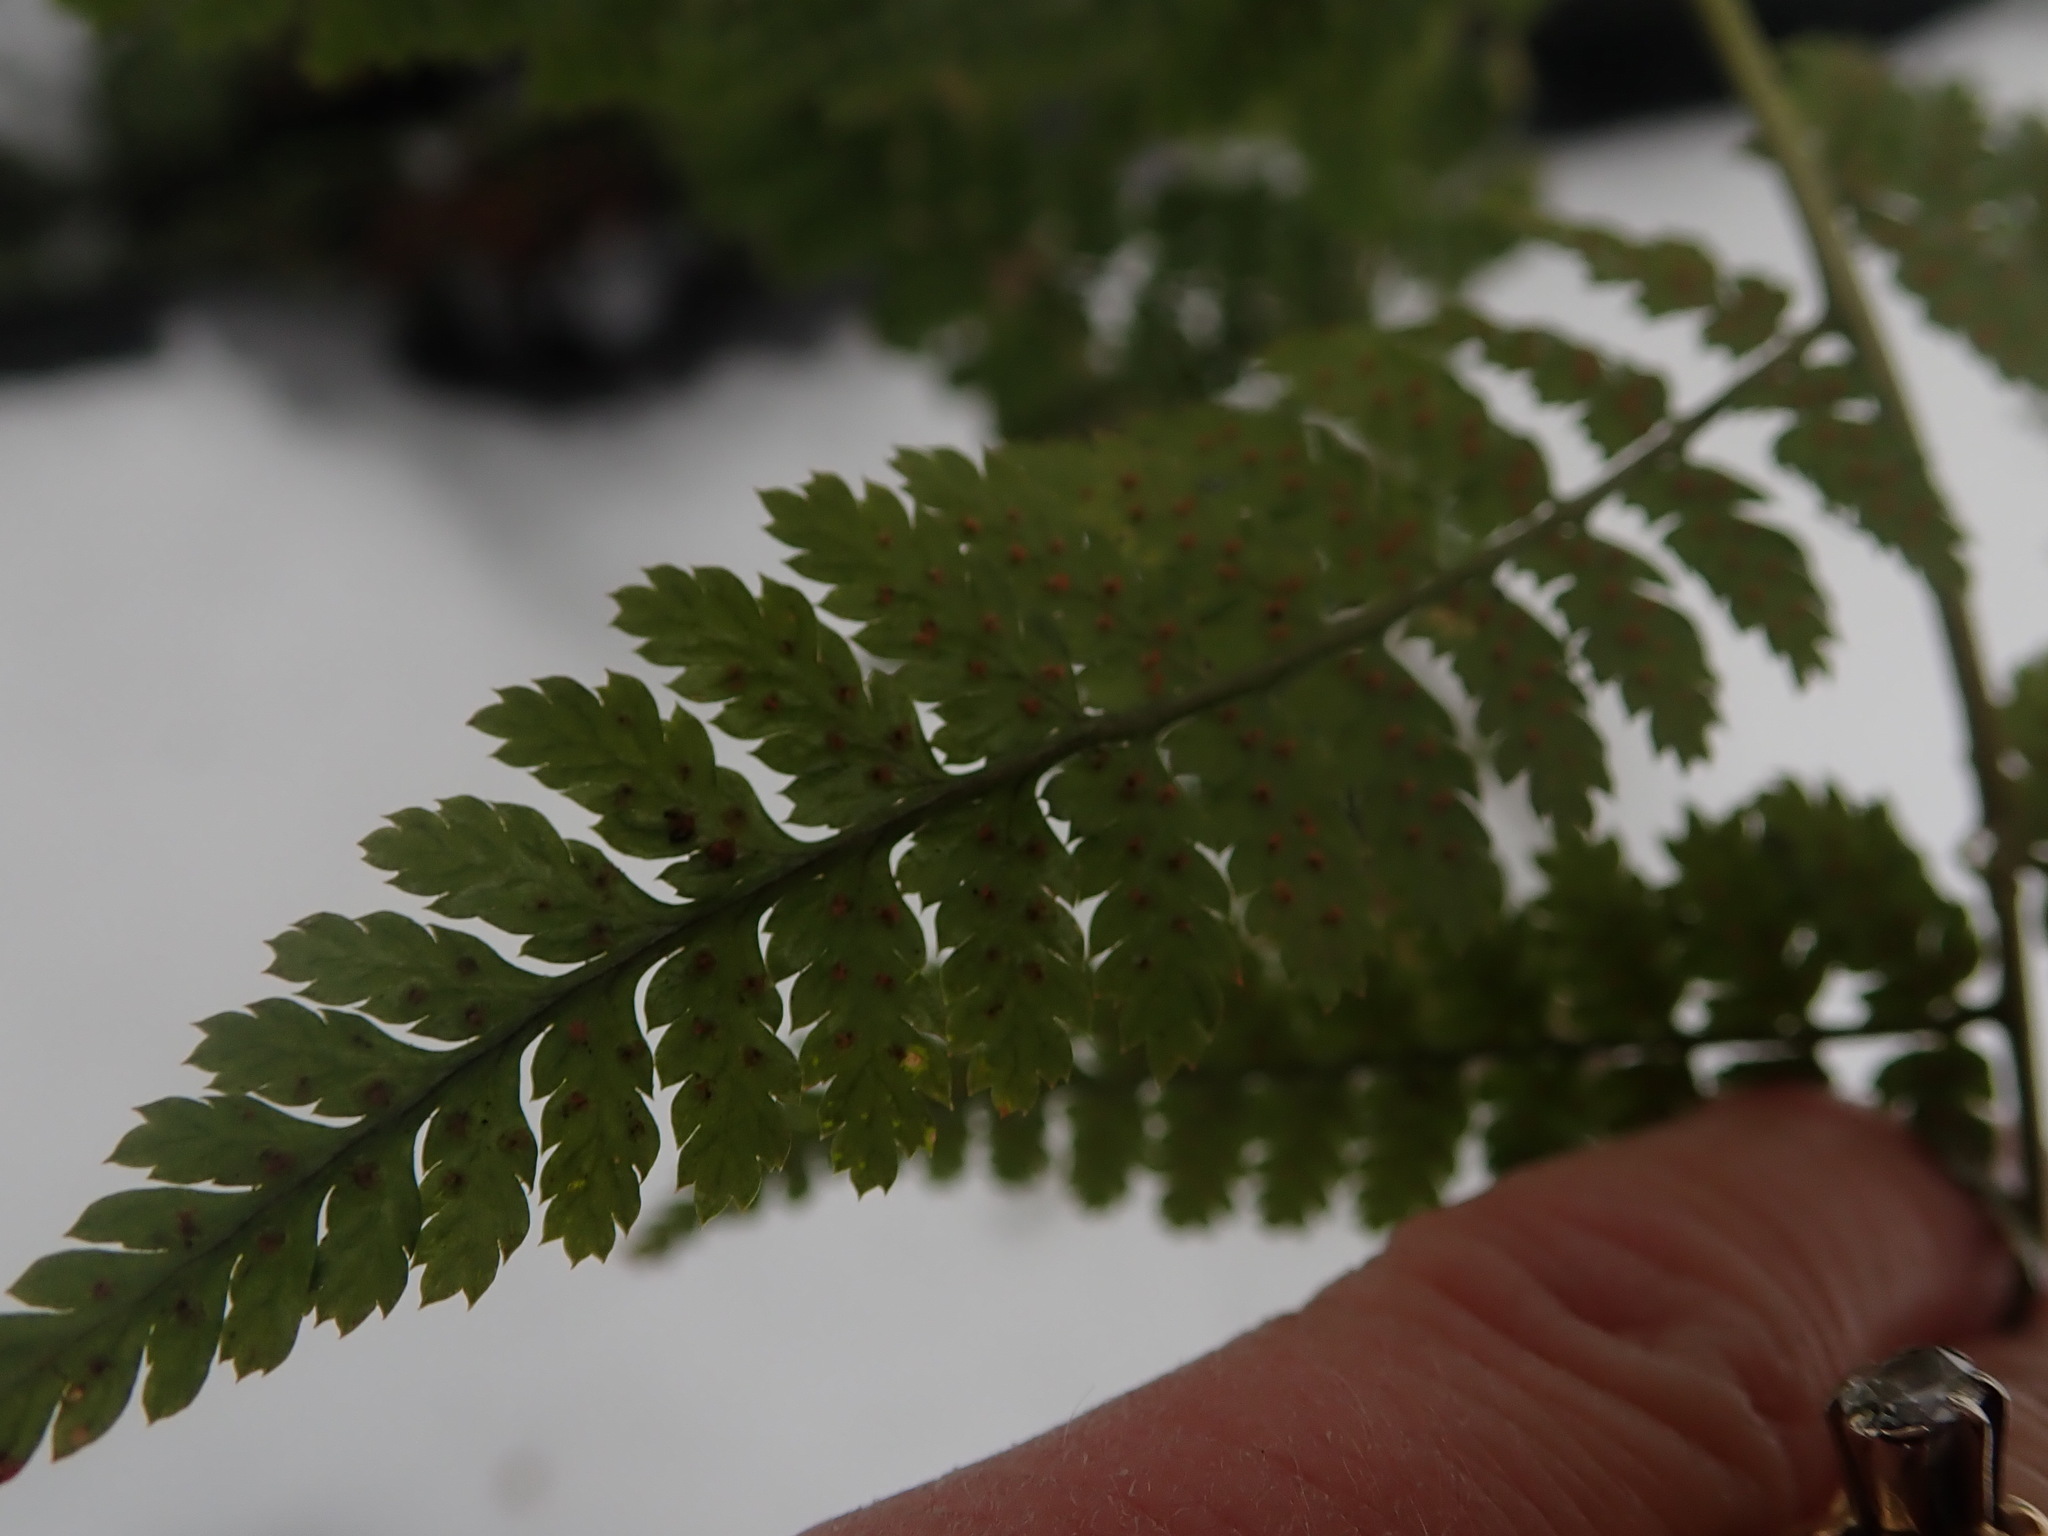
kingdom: Plantae
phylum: Tracheophyta
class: Polypodiopsida
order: Polypodiales
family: Dryopteridaceae
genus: Dryopteris
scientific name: Dryopteris intermedia
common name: Evergreen wood fern
